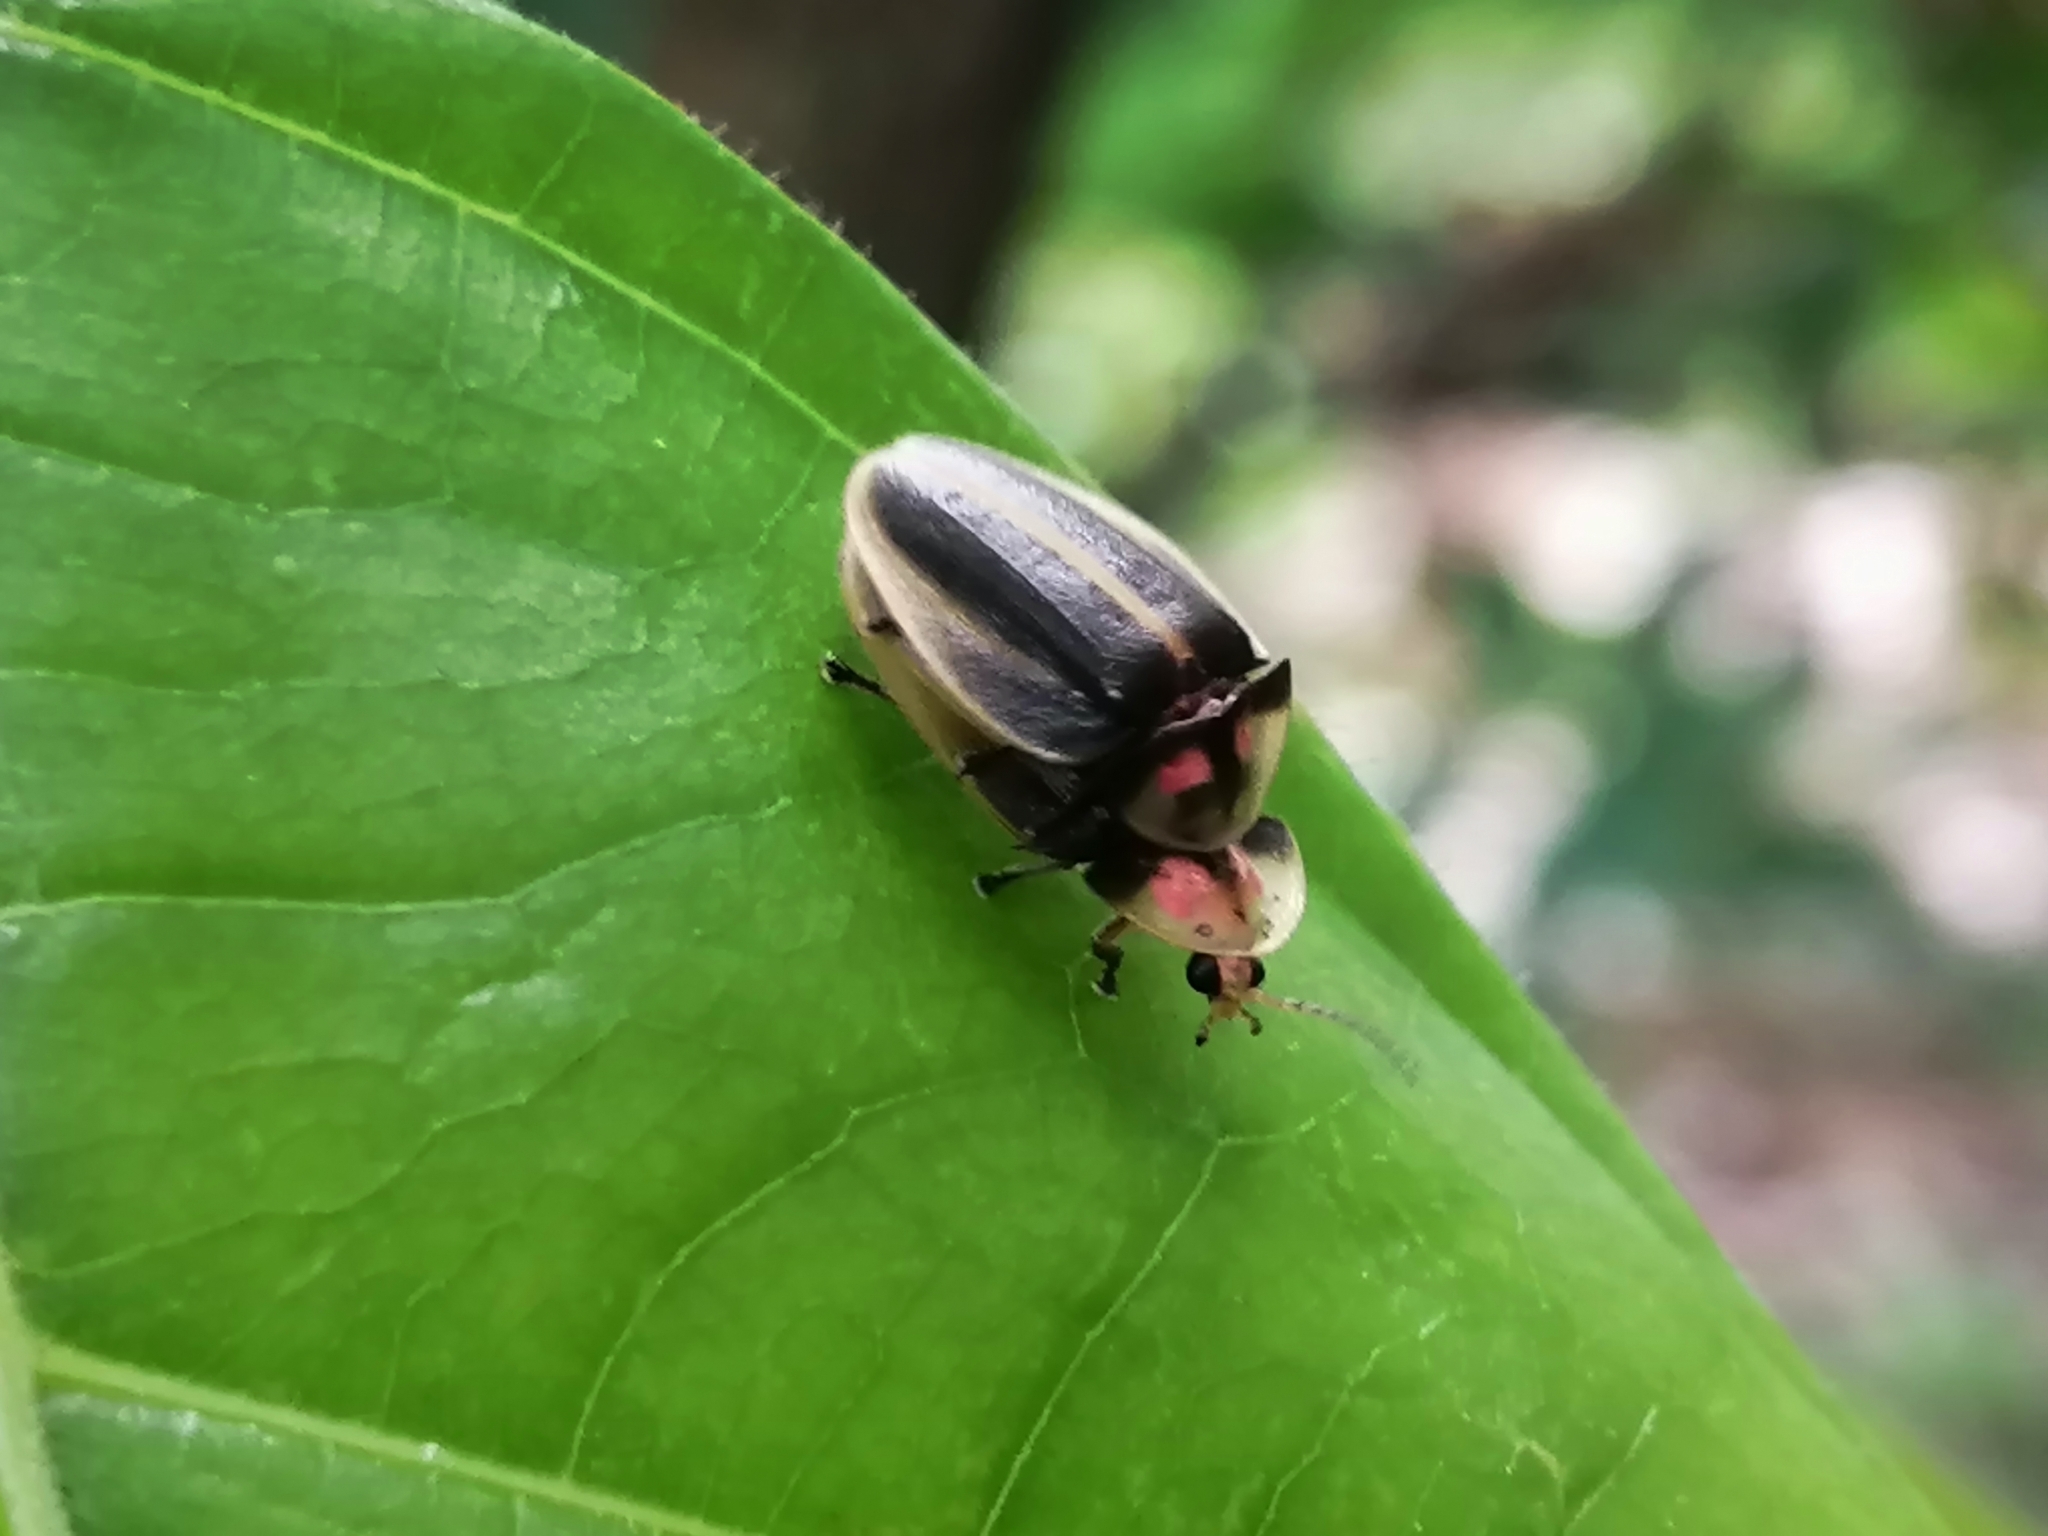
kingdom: Animalia
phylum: Arthropoda
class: Insecta
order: Coleoptera
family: Lampyridae
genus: Aspisoma
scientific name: Aspisoma pulchellum
